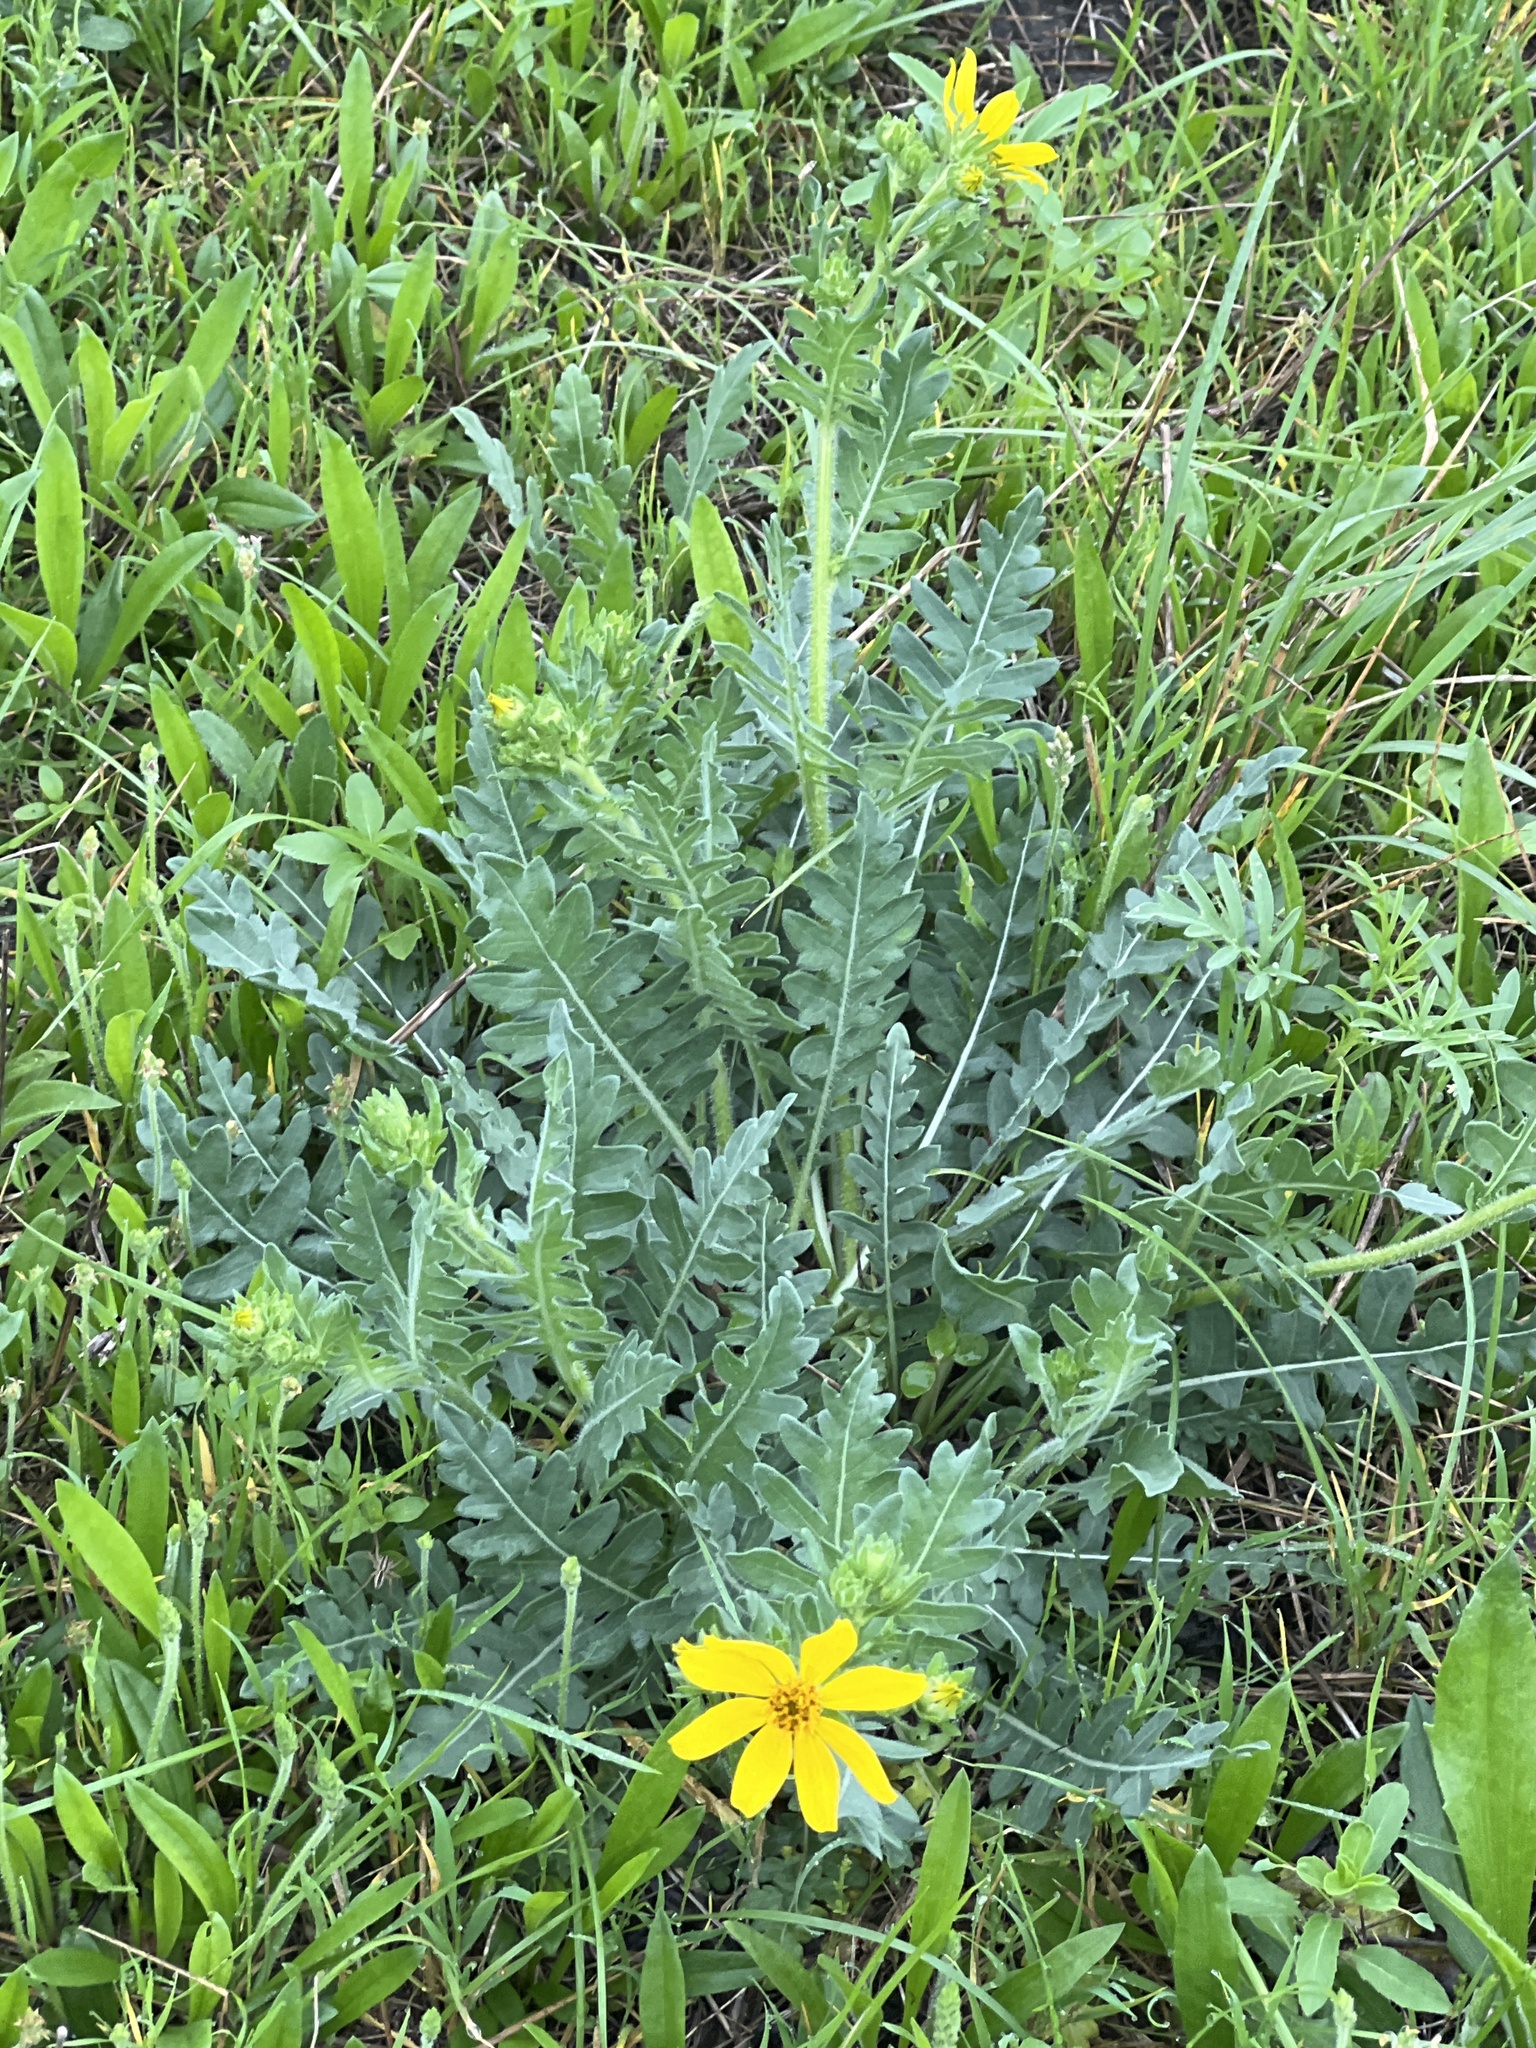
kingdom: Plantae
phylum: Tracheophyta
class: Magnoliopsida
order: Asterales
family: Asteraceae
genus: Engelmannia
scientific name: Engelmannia peristenia
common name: Engelmann's daisy
